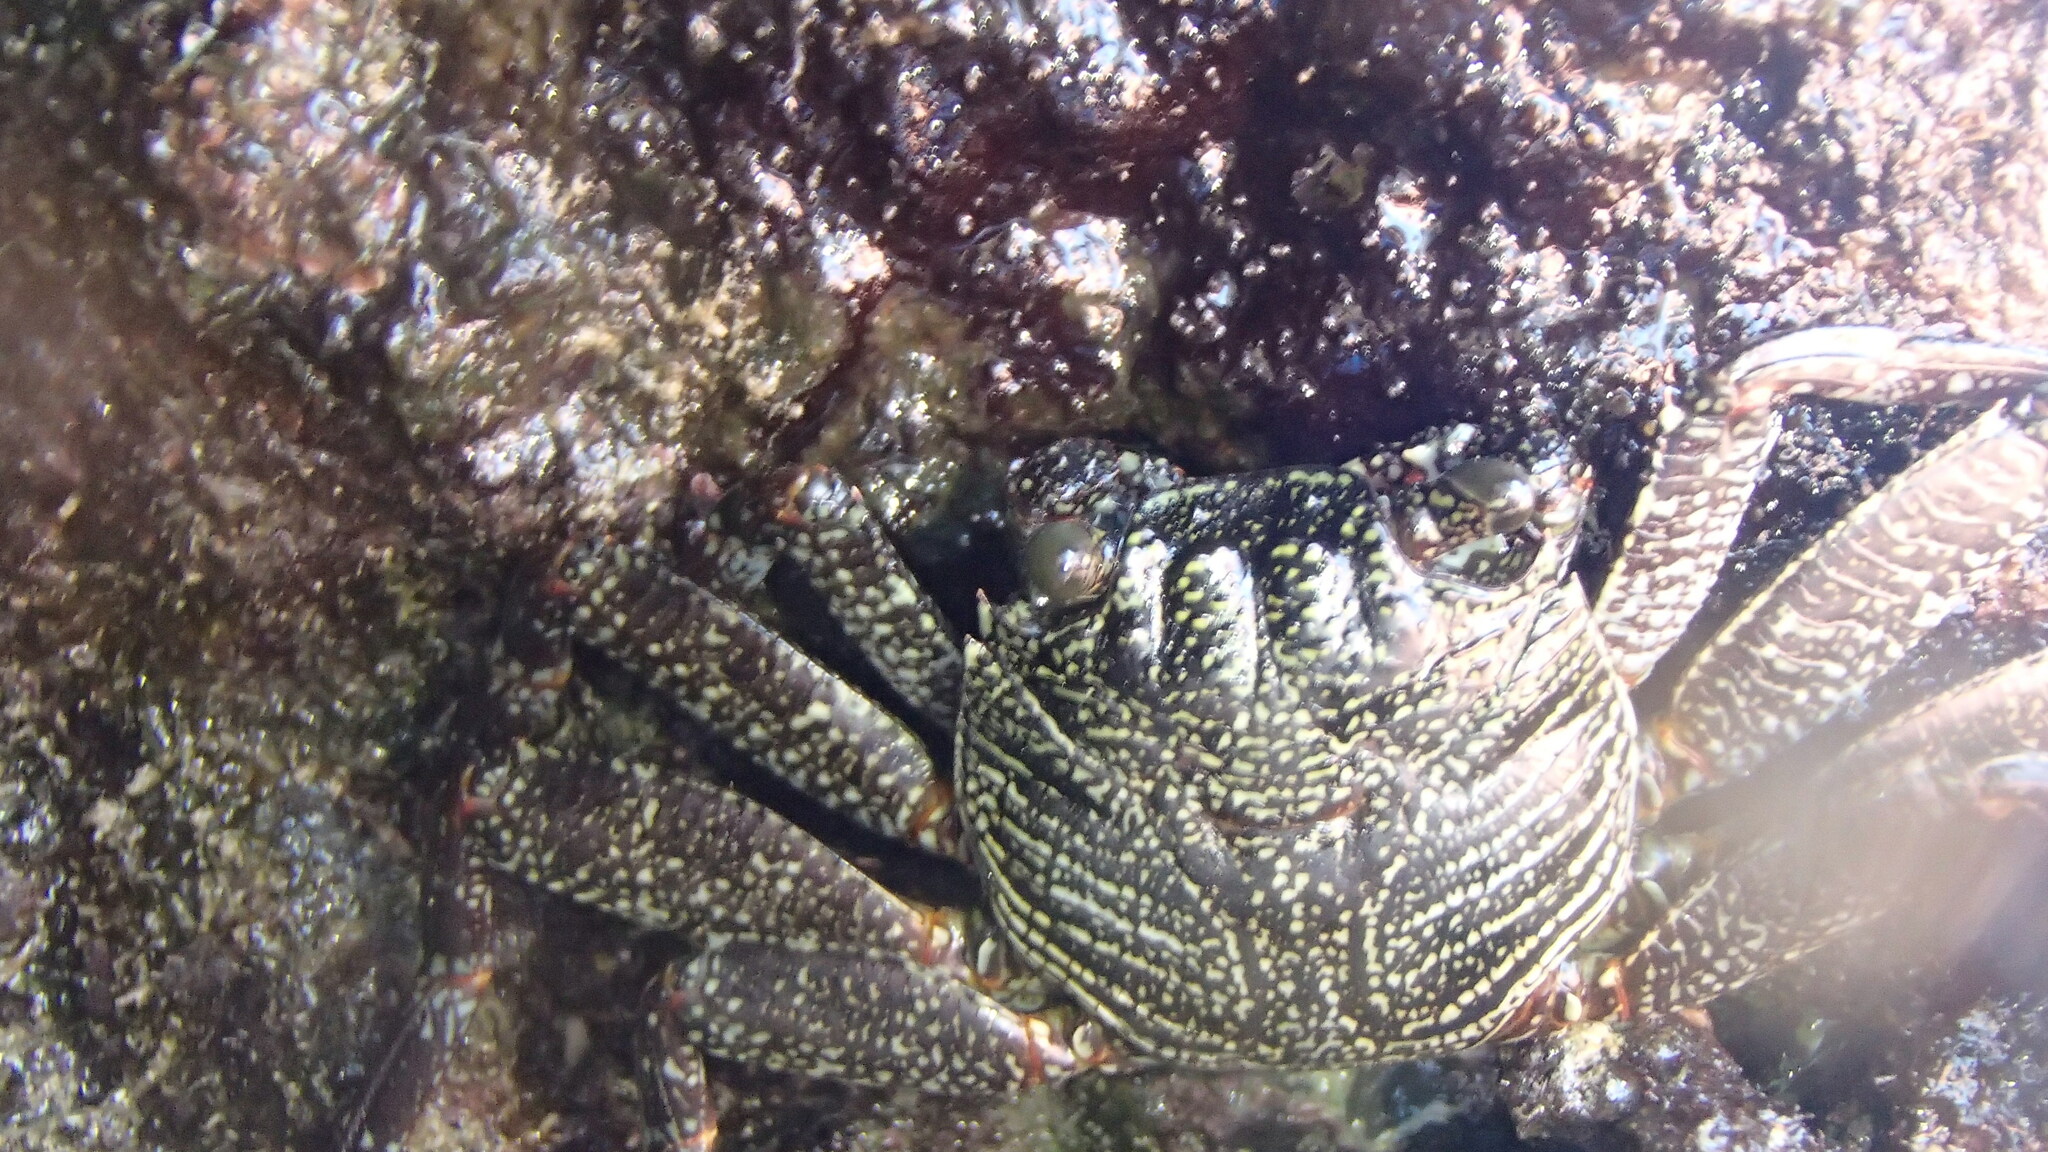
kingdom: Animalia
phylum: Arthropoda
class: Malacostraca
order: Decapoda
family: Grapsidae
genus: Grapsus
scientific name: Grapsus tenuicrustatus
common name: Natal lightfoot crab
